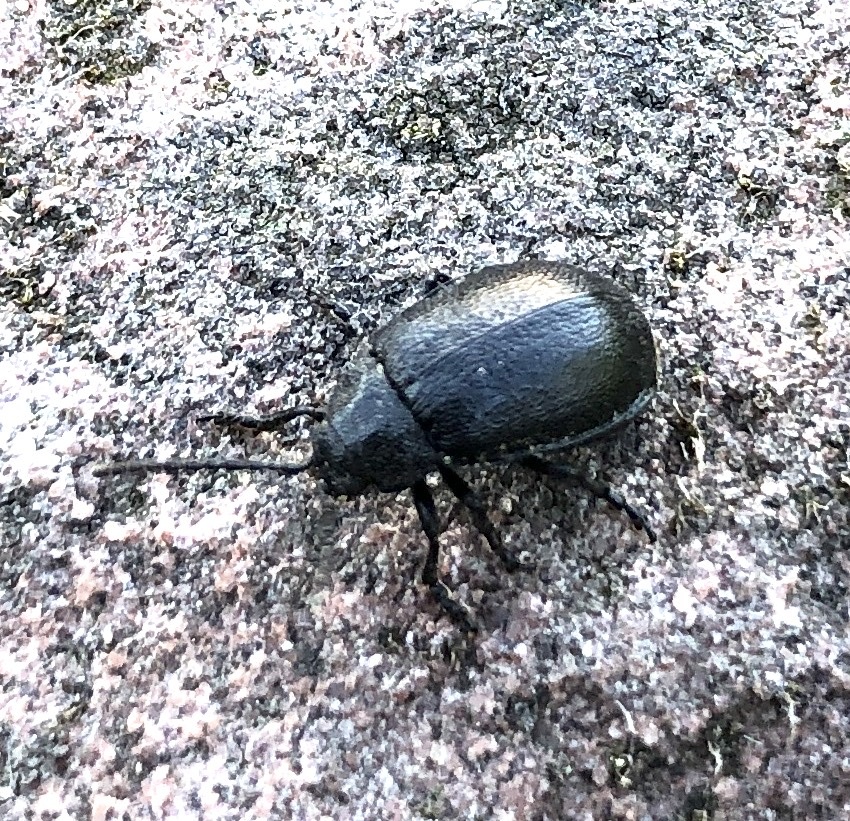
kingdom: Animalia
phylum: Arthropoda
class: Insecta
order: Coleoptera
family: Chrysomelidae
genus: Galeruca
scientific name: Galeruca tanaceti
